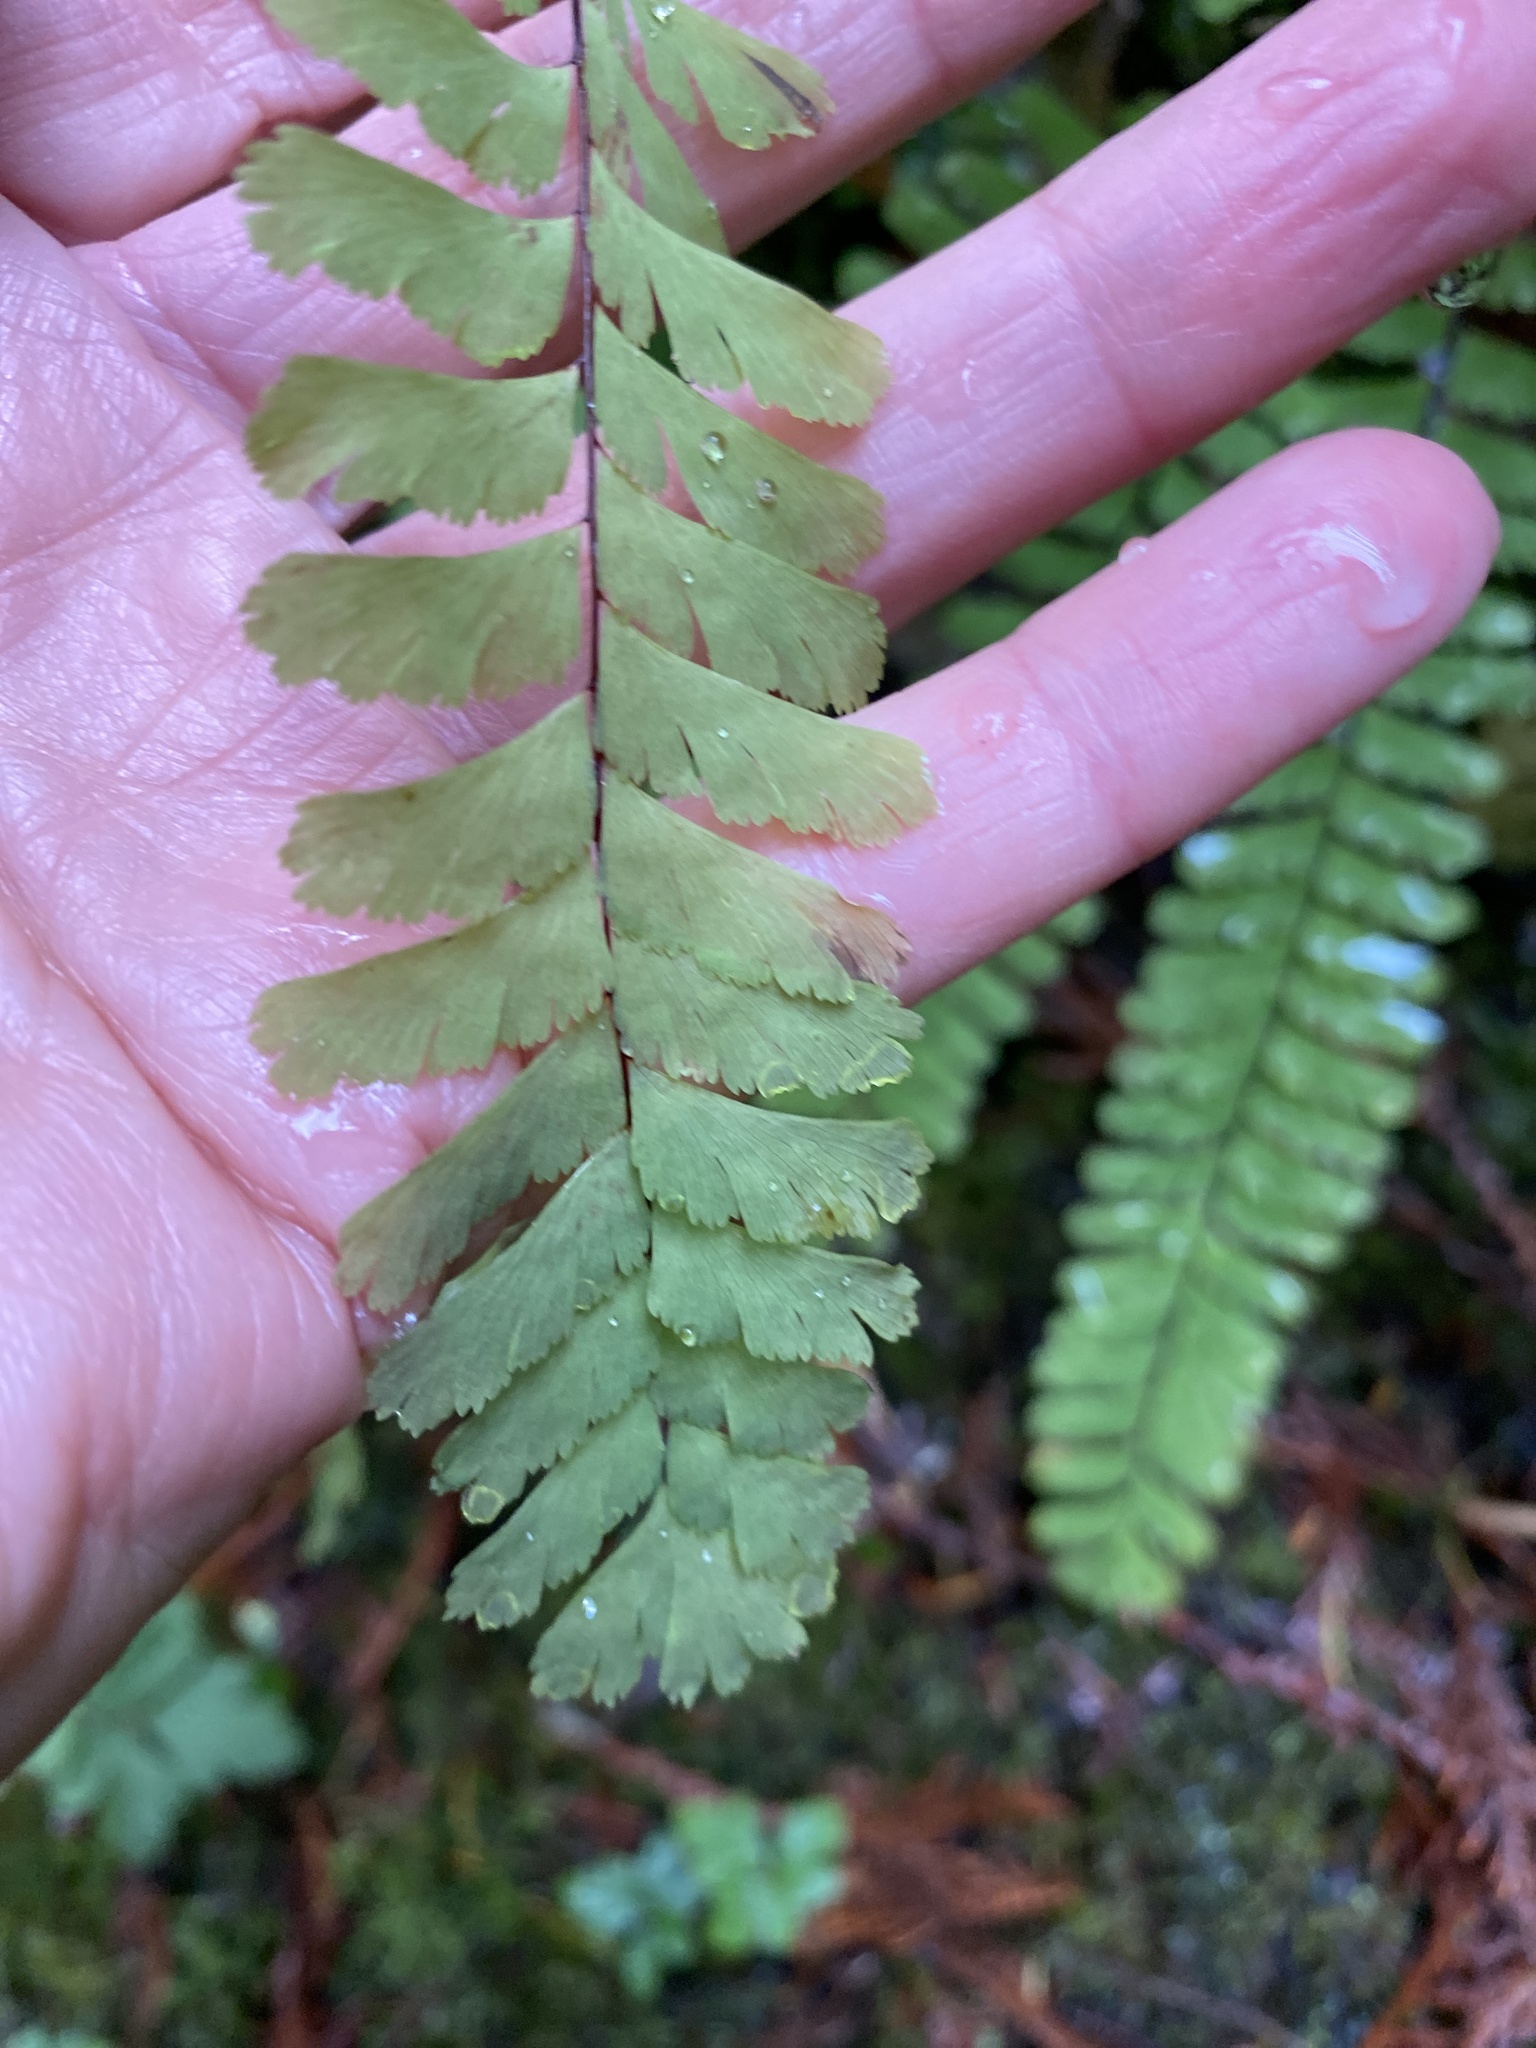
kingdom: Plantae
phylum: Tracheophyta
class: Polypodiopsida
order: Polypodiales
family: Pteridaceae
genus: Adiantum
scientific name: Adiantum aleuticum
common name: Aleutian maidenhair fern
